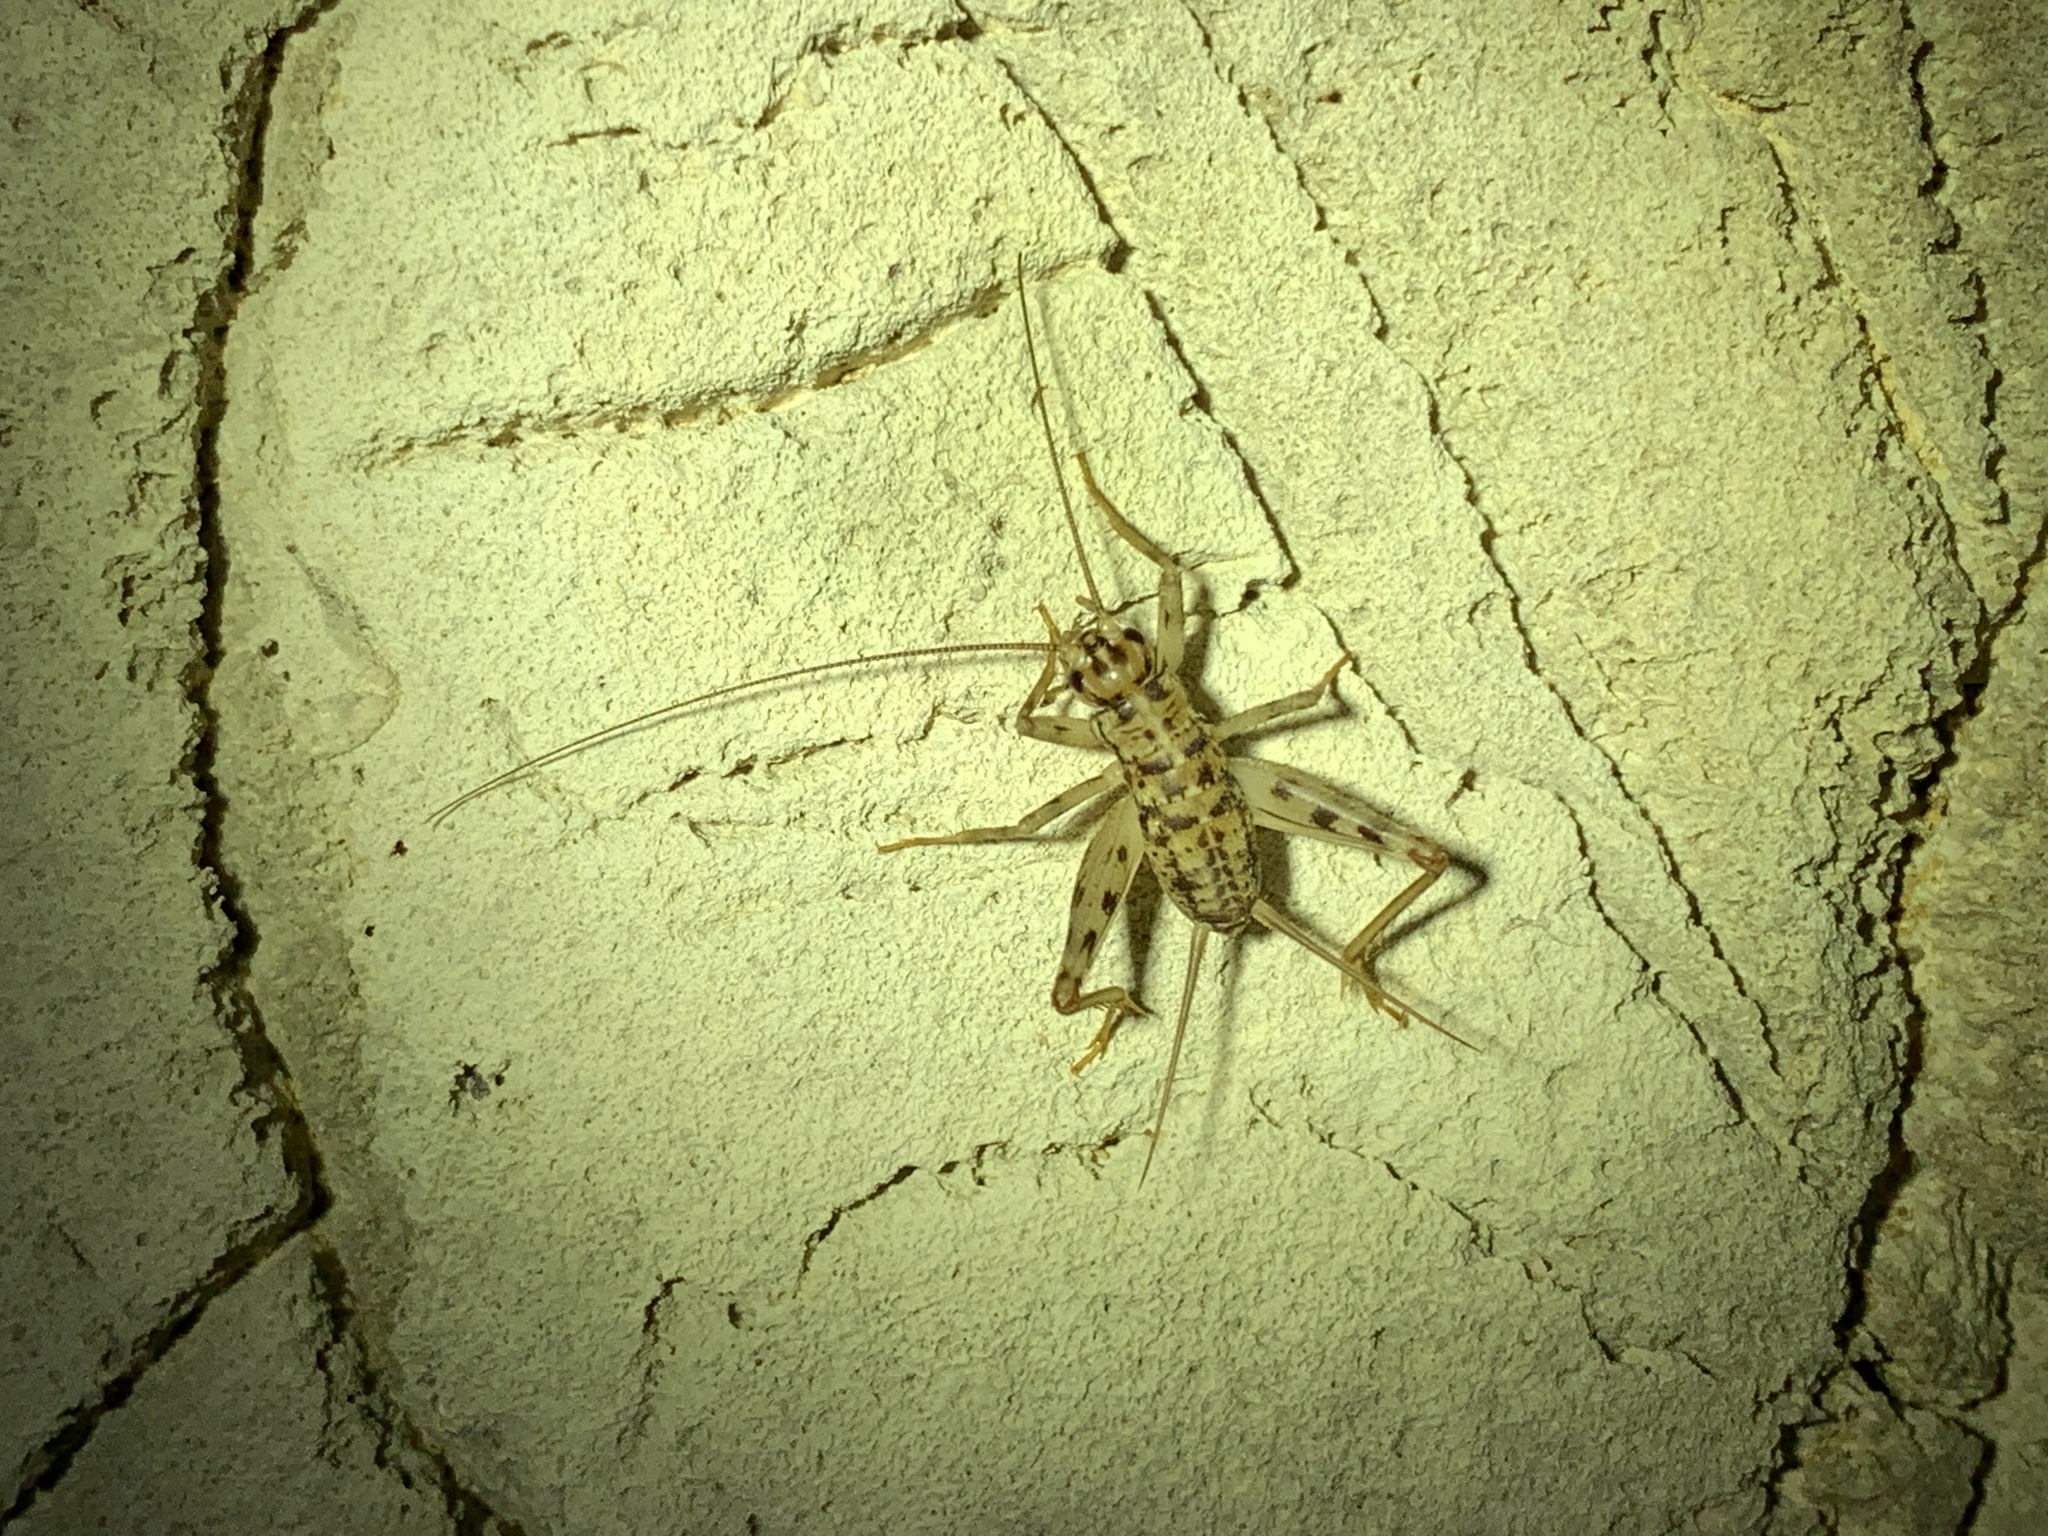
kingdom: Animalia
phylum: Arthropoda
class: Insecta
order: Orthoptera
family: Gryllidae
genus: Gryllomorpha
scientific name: Gryllomorpha dalmatina
